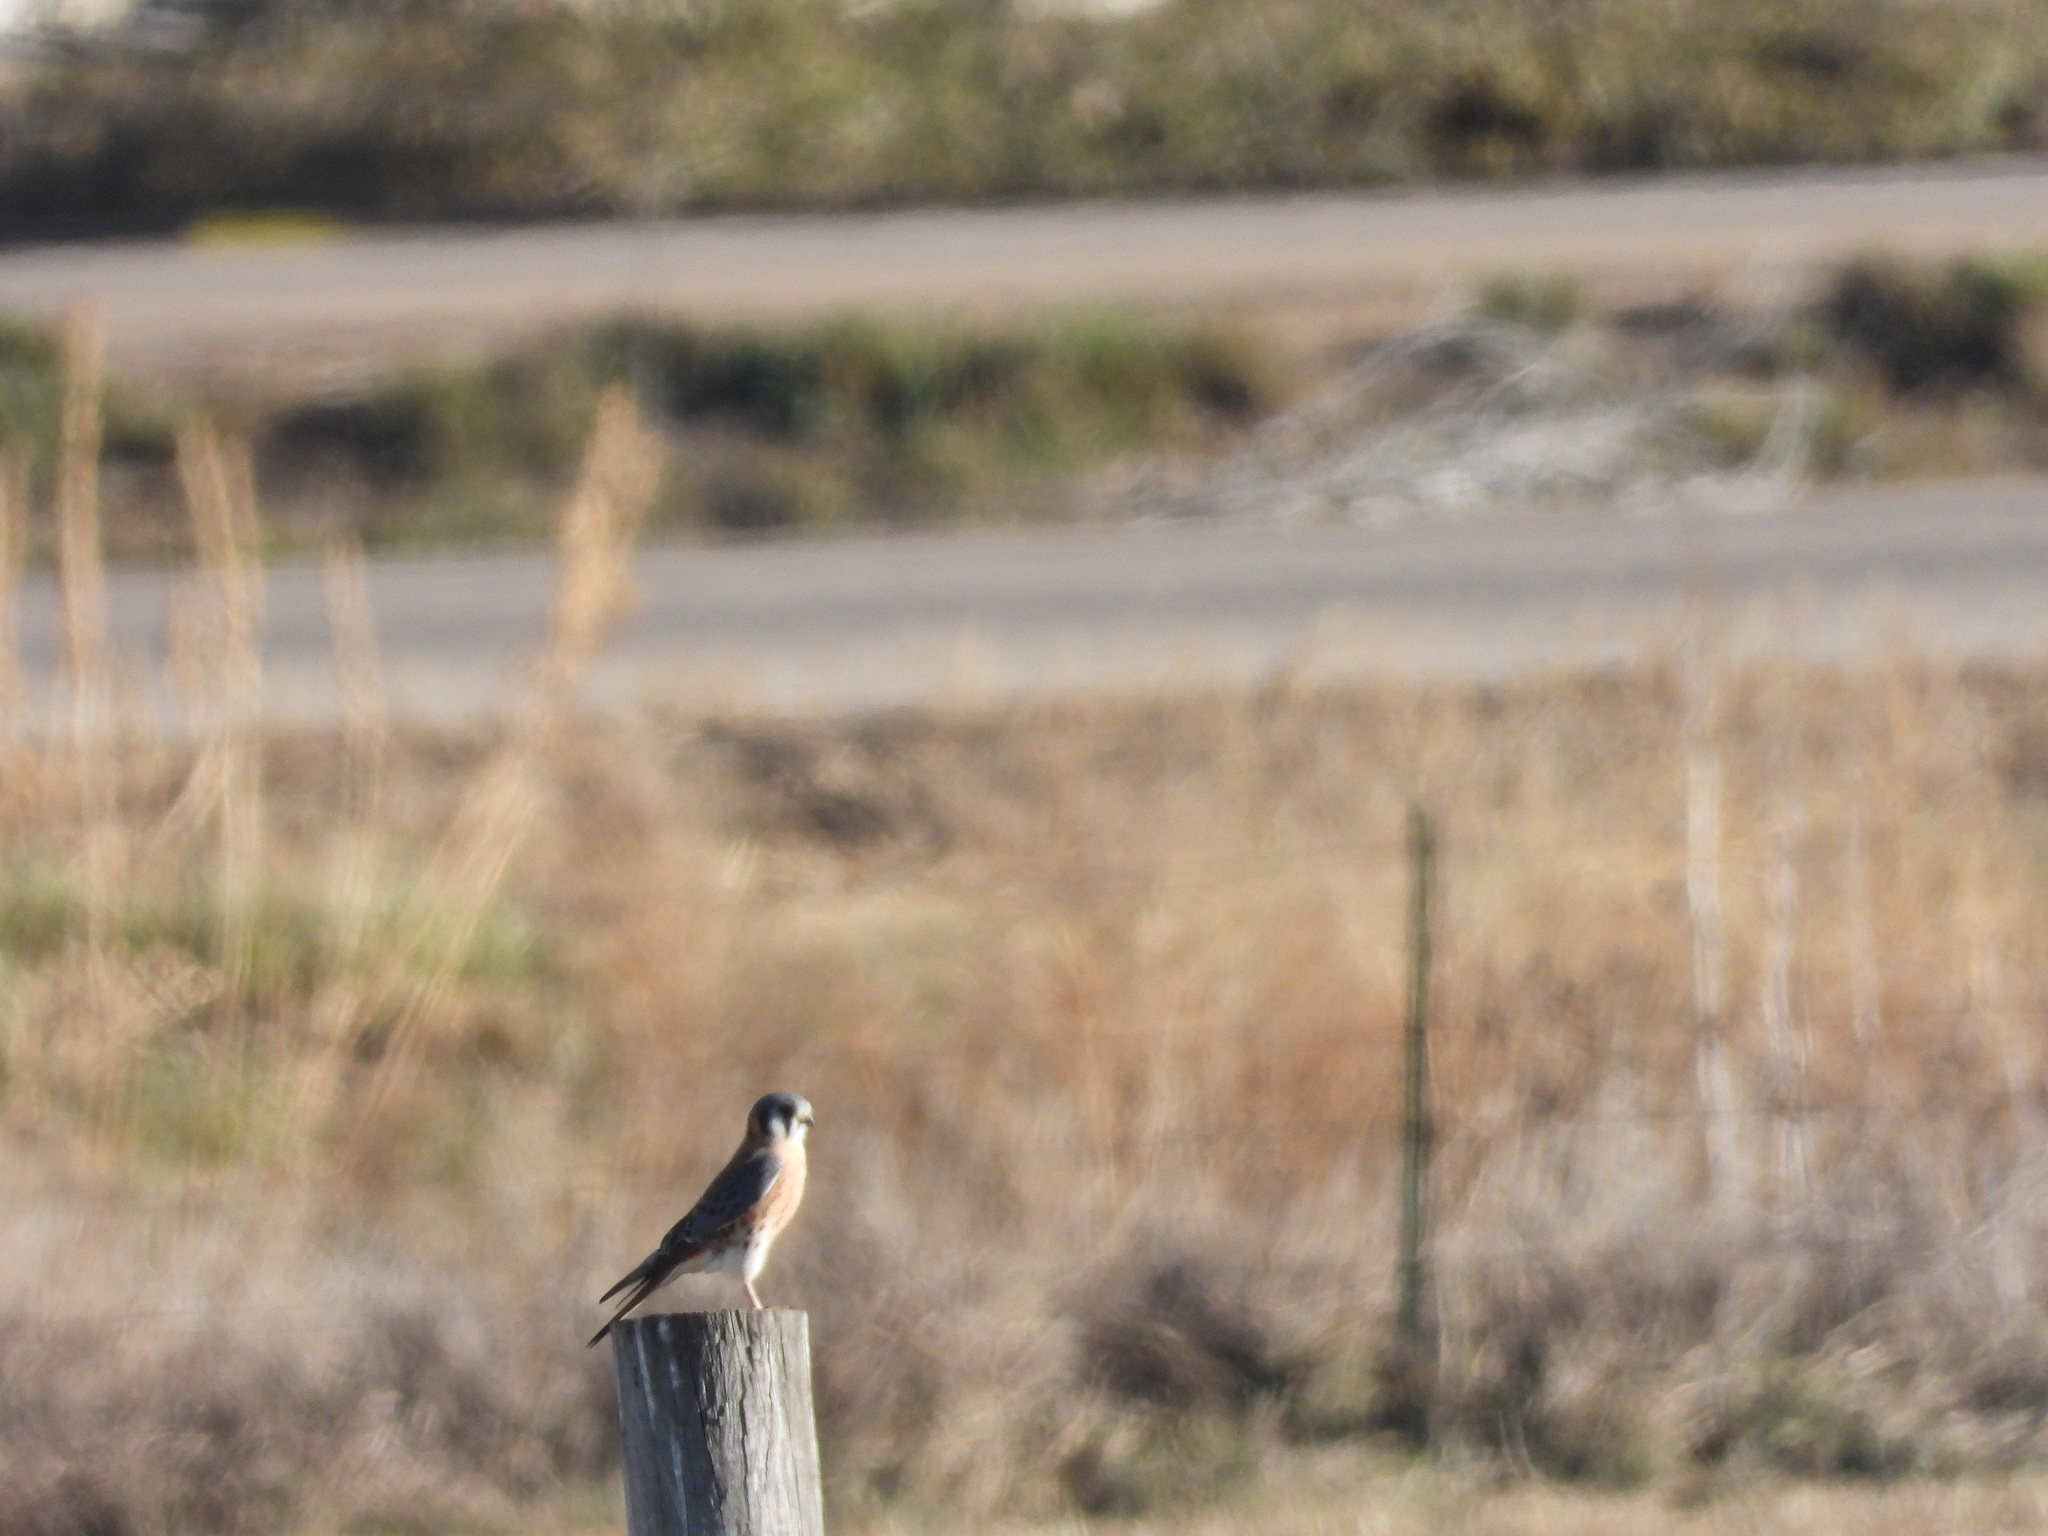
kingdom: Animalia
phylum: Chordata
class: Aves
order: Falconiformes
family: Falconidae
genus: Falco
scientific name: Falco sparverius
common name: American kestrel
